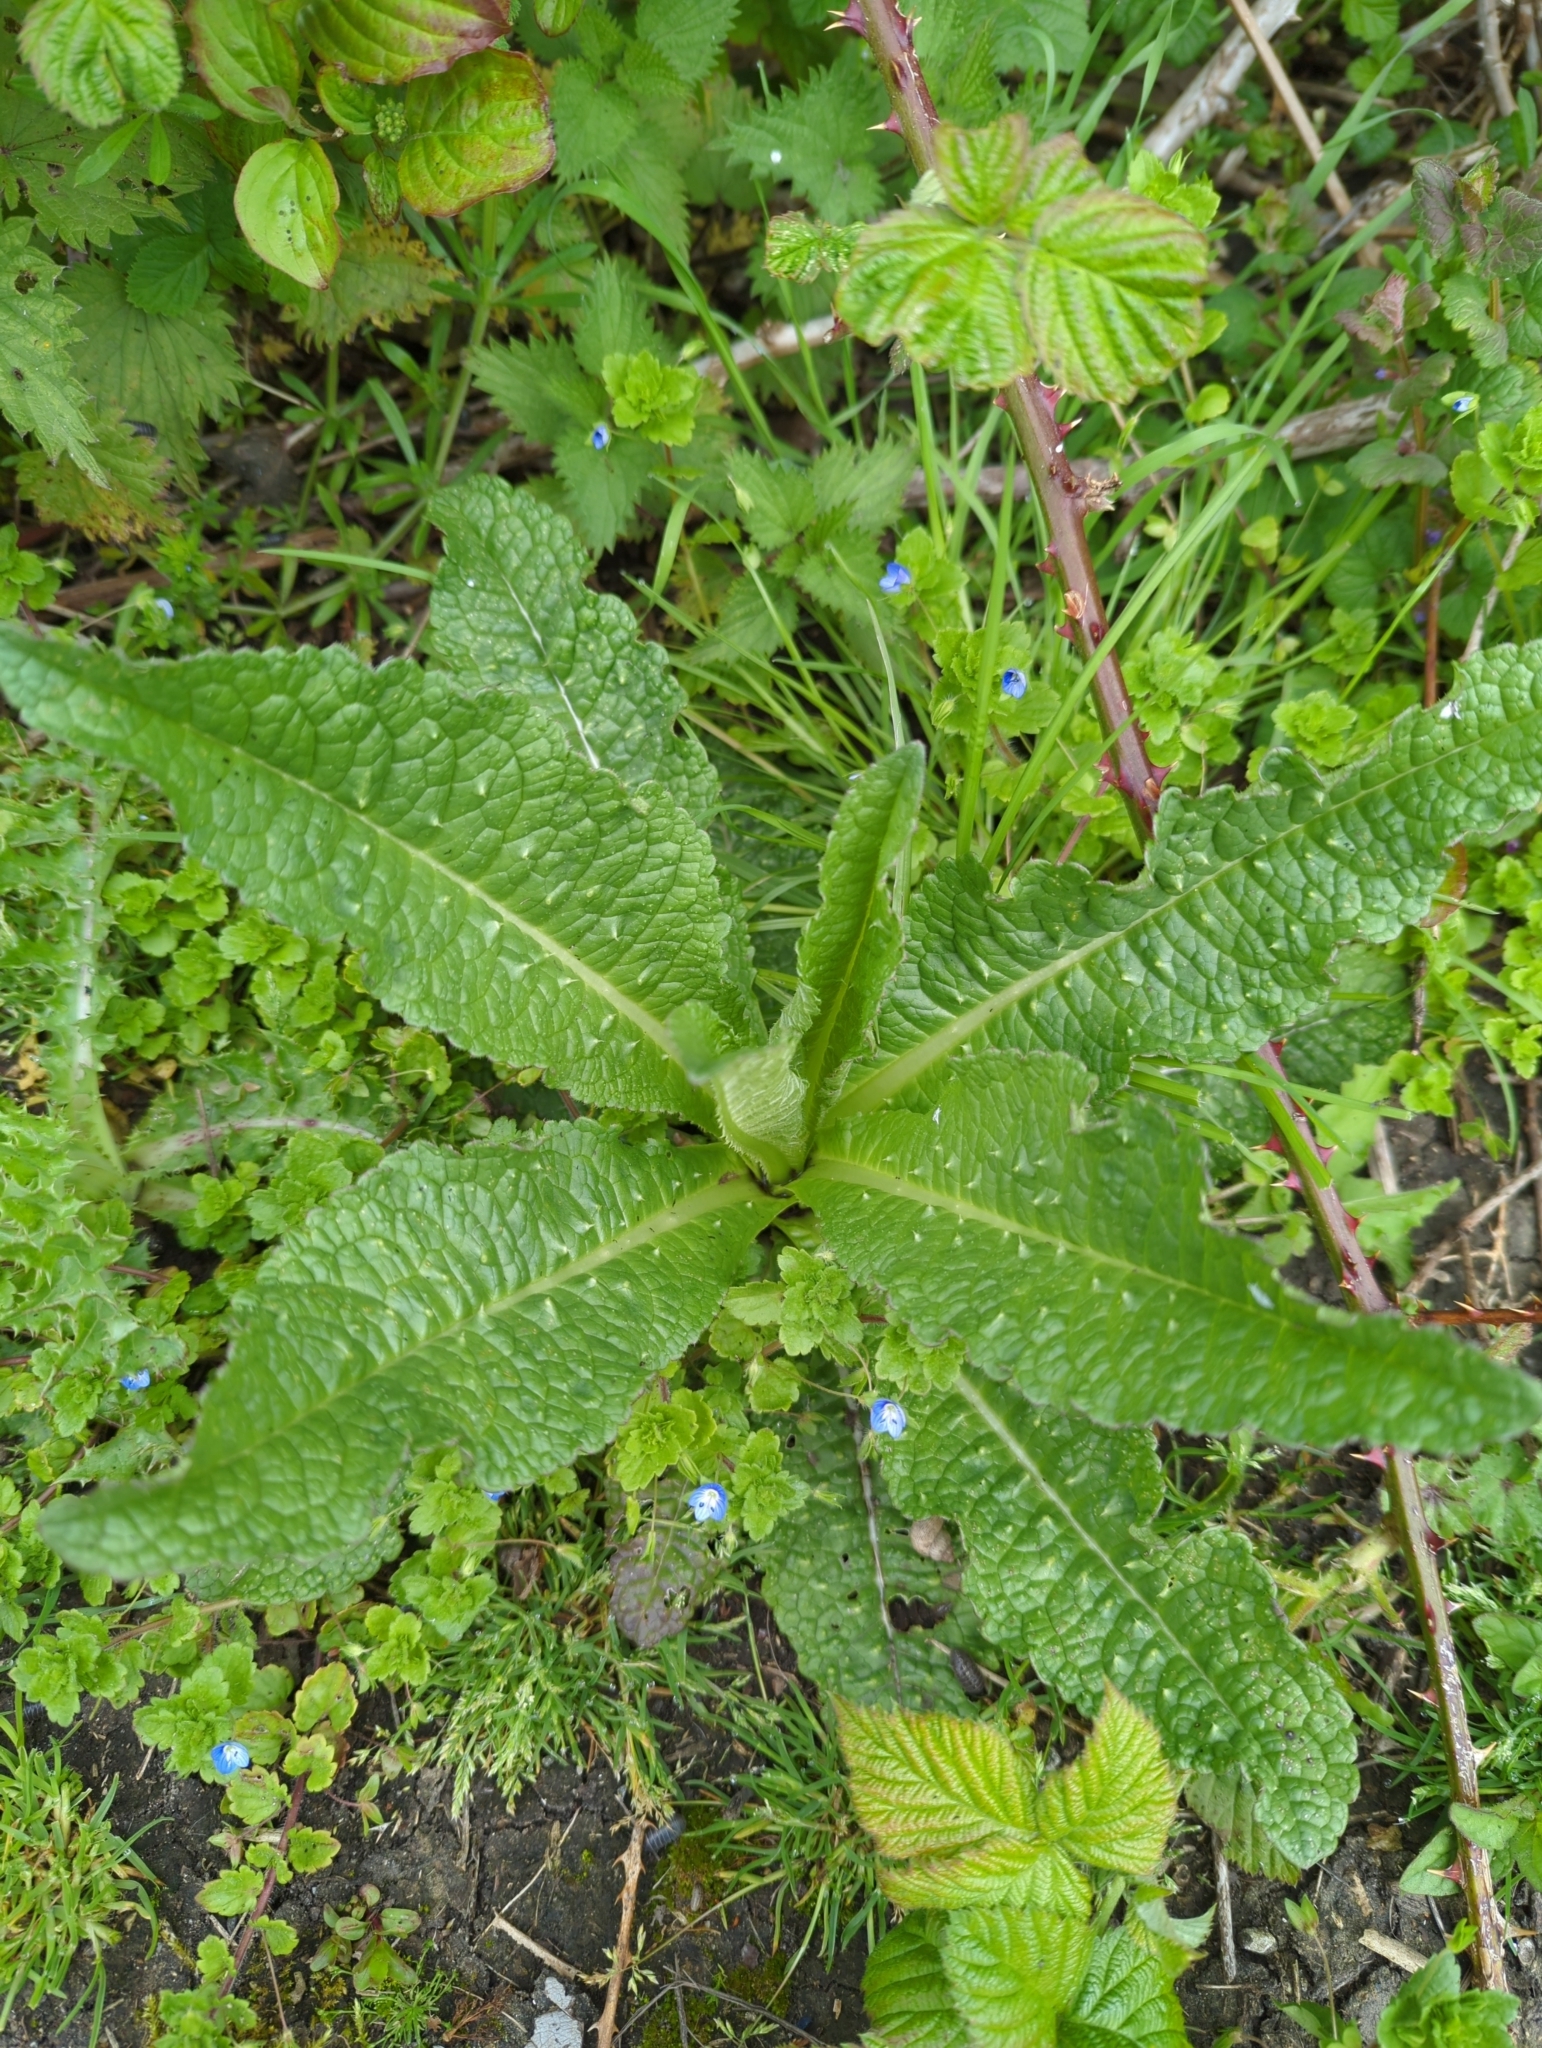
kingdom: Plantae
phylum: Tracheophyta
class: Magnoliopsida
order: Dipsacales
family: Caprifoliaceae
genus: Dipsacus
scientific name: Dipsacus fullonum
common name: Teasel
